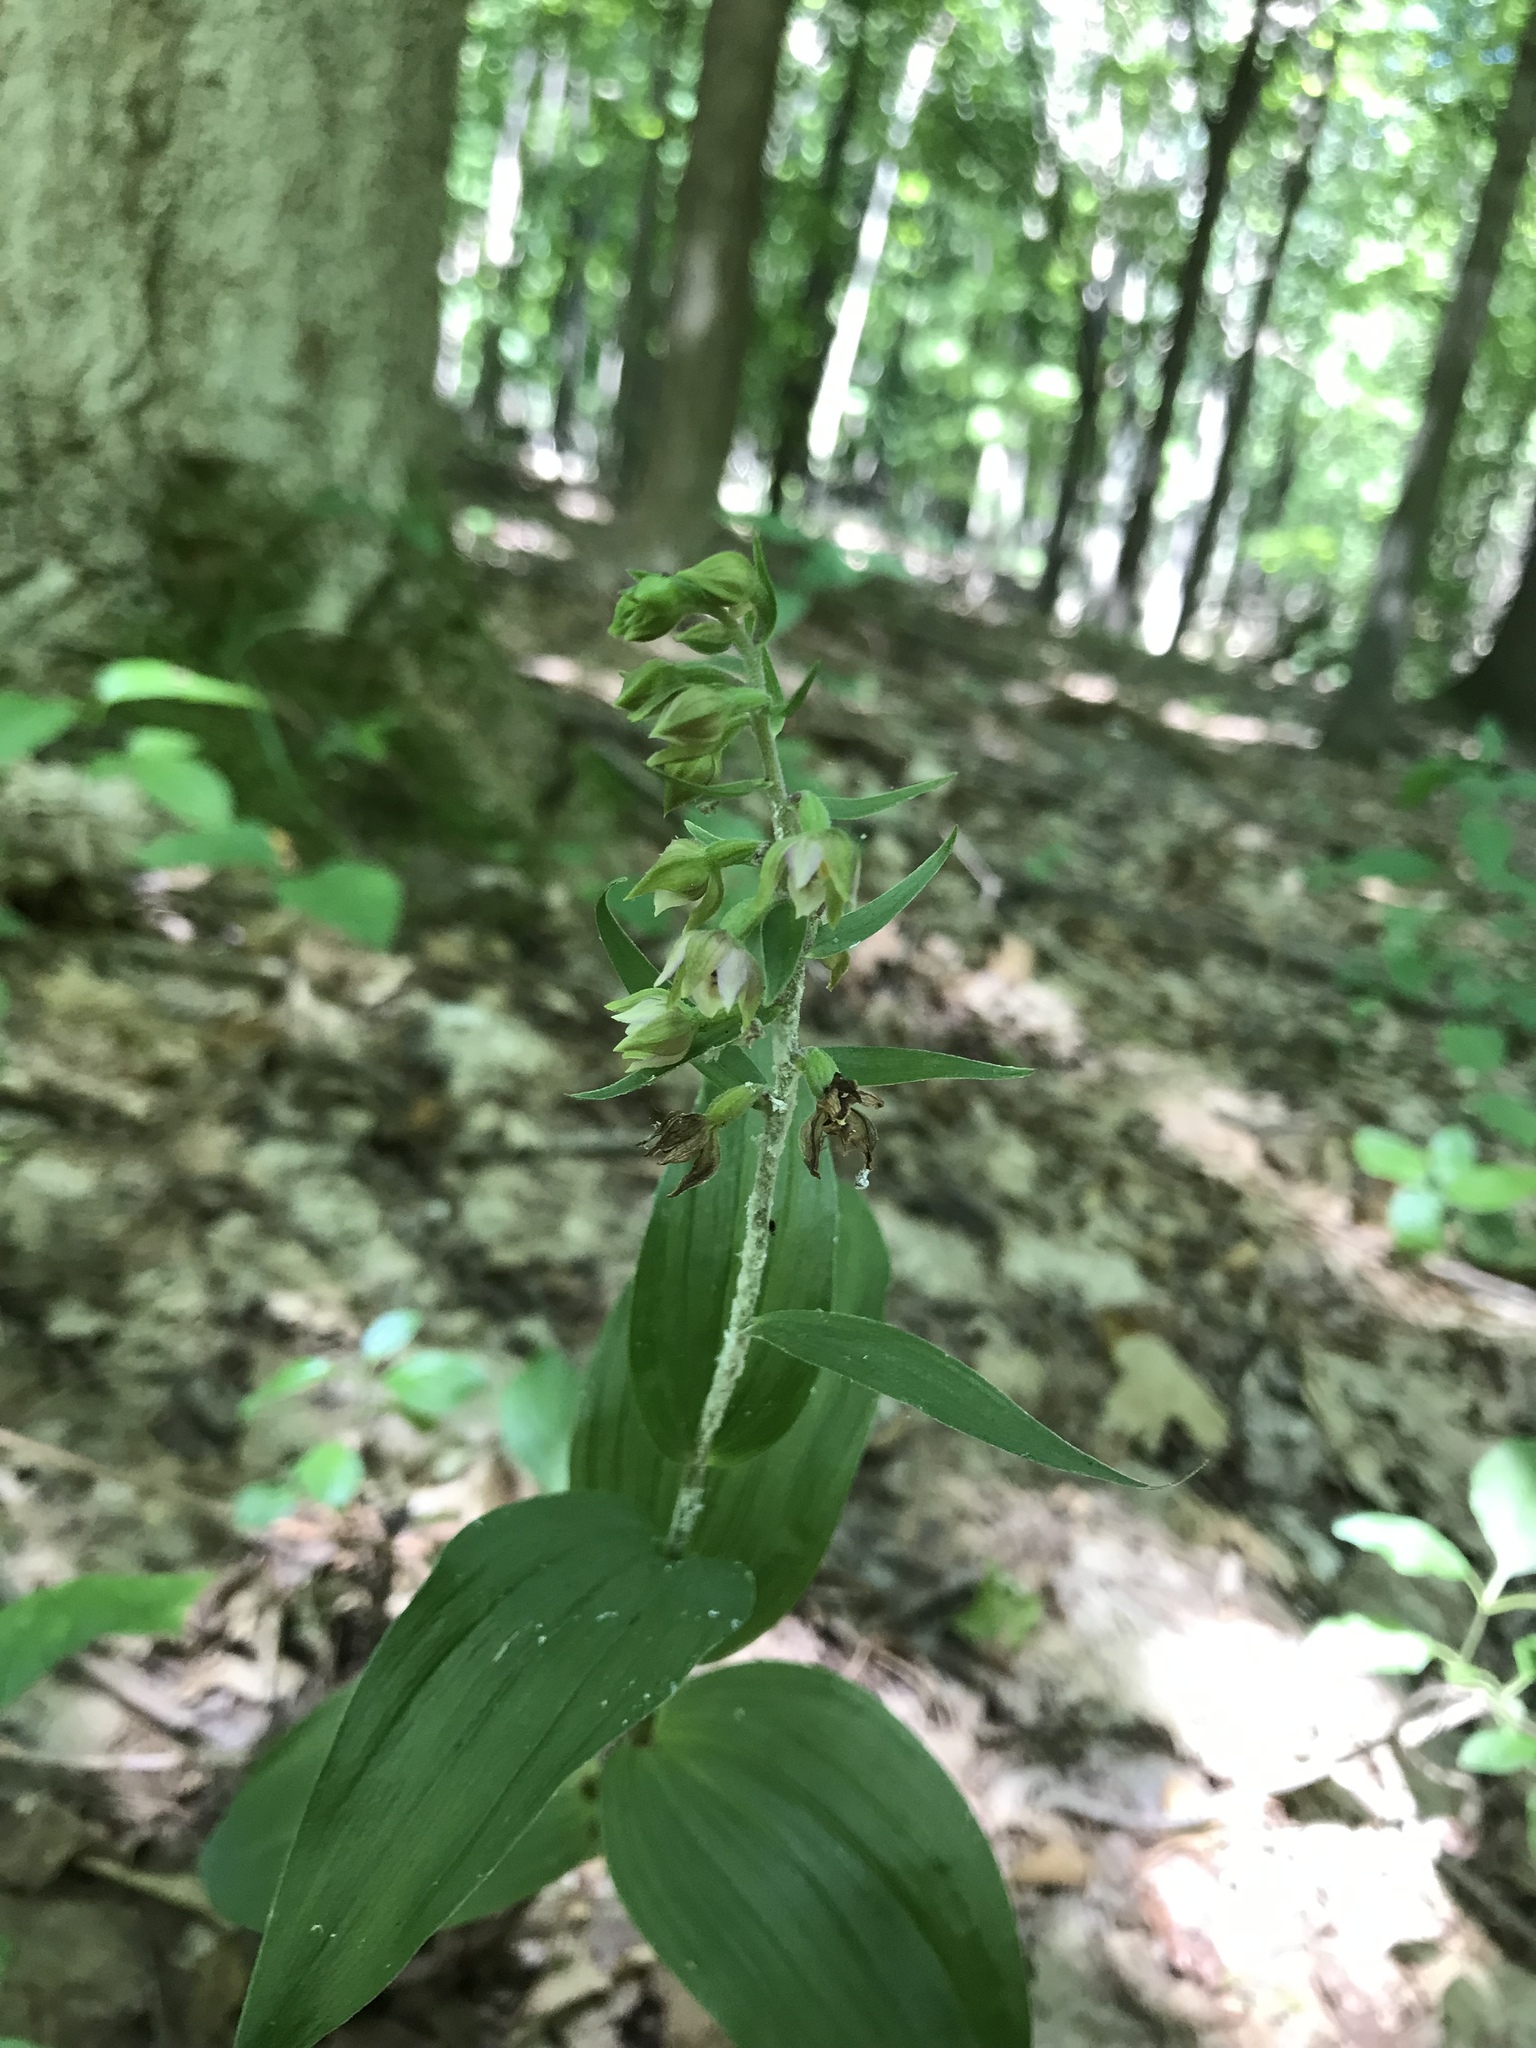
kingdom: Plantae
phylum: Tracheophyta
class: Liliopsida
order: Asparagales
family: Orchidaceae
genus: Epipactis
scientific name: Epipactis helleborine
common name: Broad-leaved helleborine
